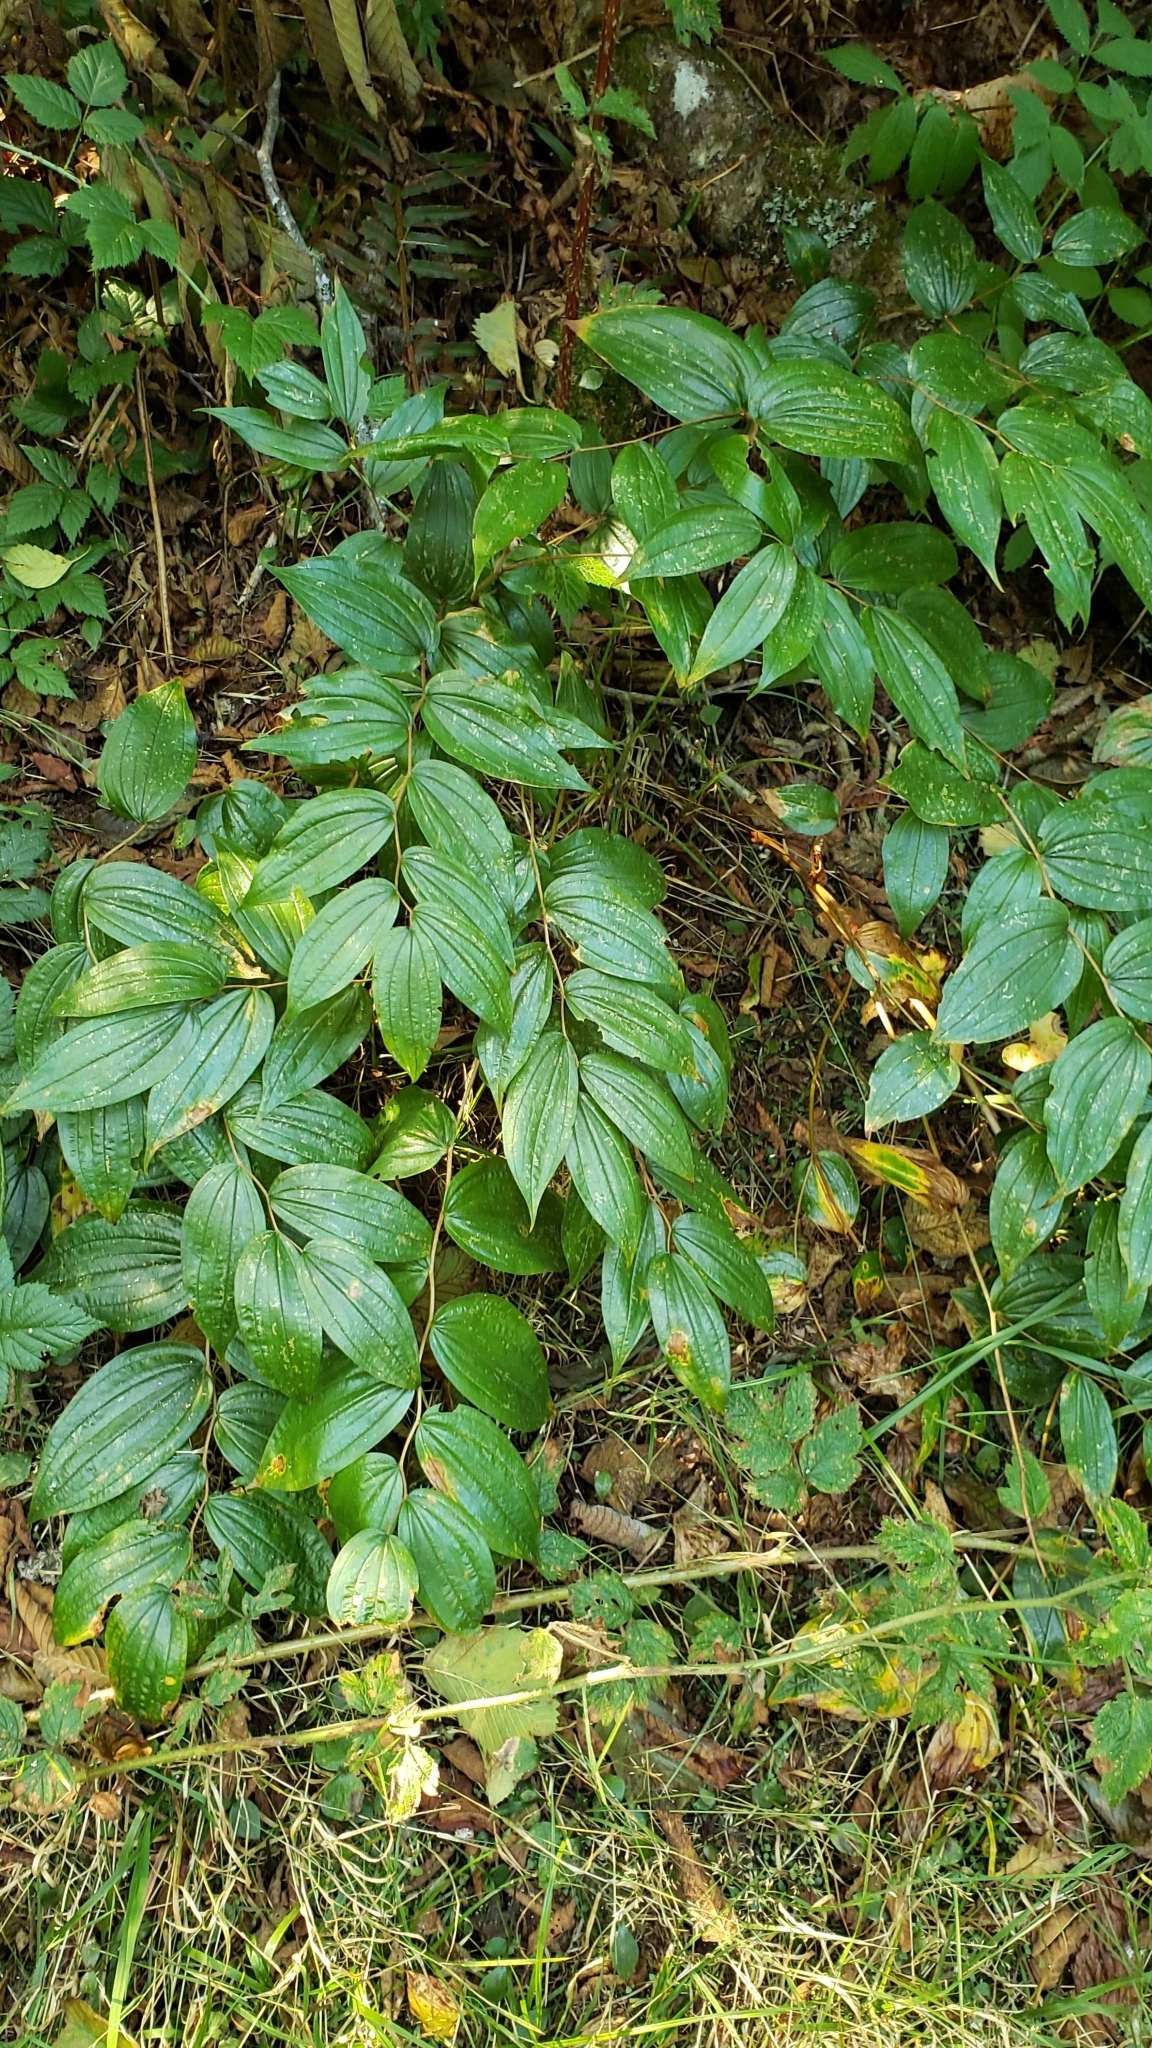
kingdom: Plantae
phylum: Tracheophyta
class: Liliopsida
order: Liliales
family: Liliaceae
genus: Prosartes
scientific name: Prosartes smithii
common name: Fairy-lantern
